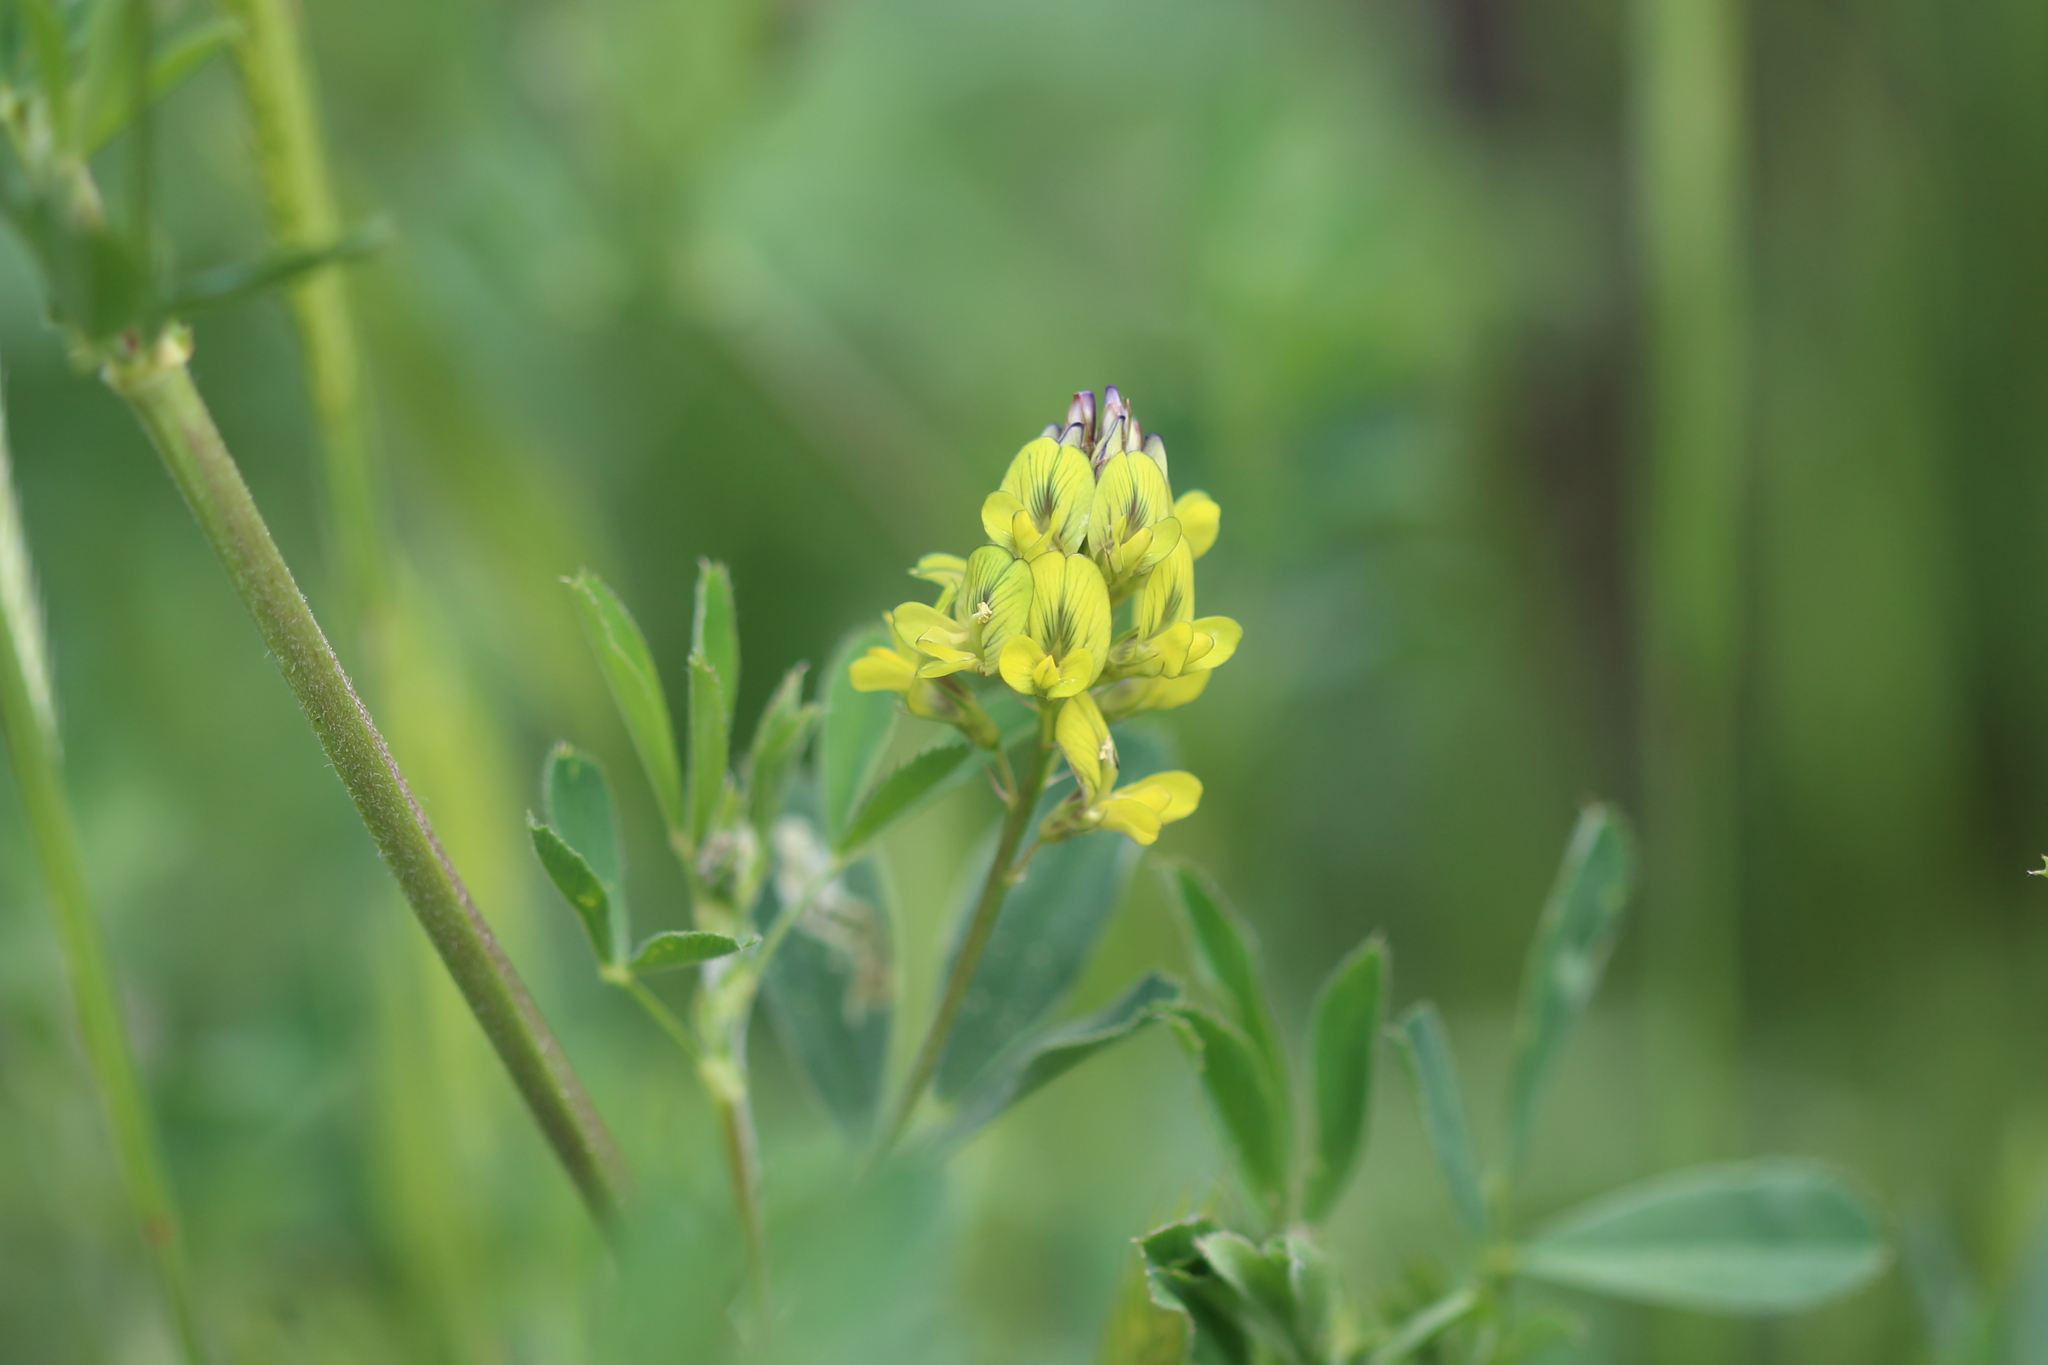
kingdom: Plantae
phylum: Tracheophyta
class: Magnoliopsida
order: Fabales
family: Fabaceae
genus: Medicago
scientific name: Medicago sativa
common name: Alfalfa
